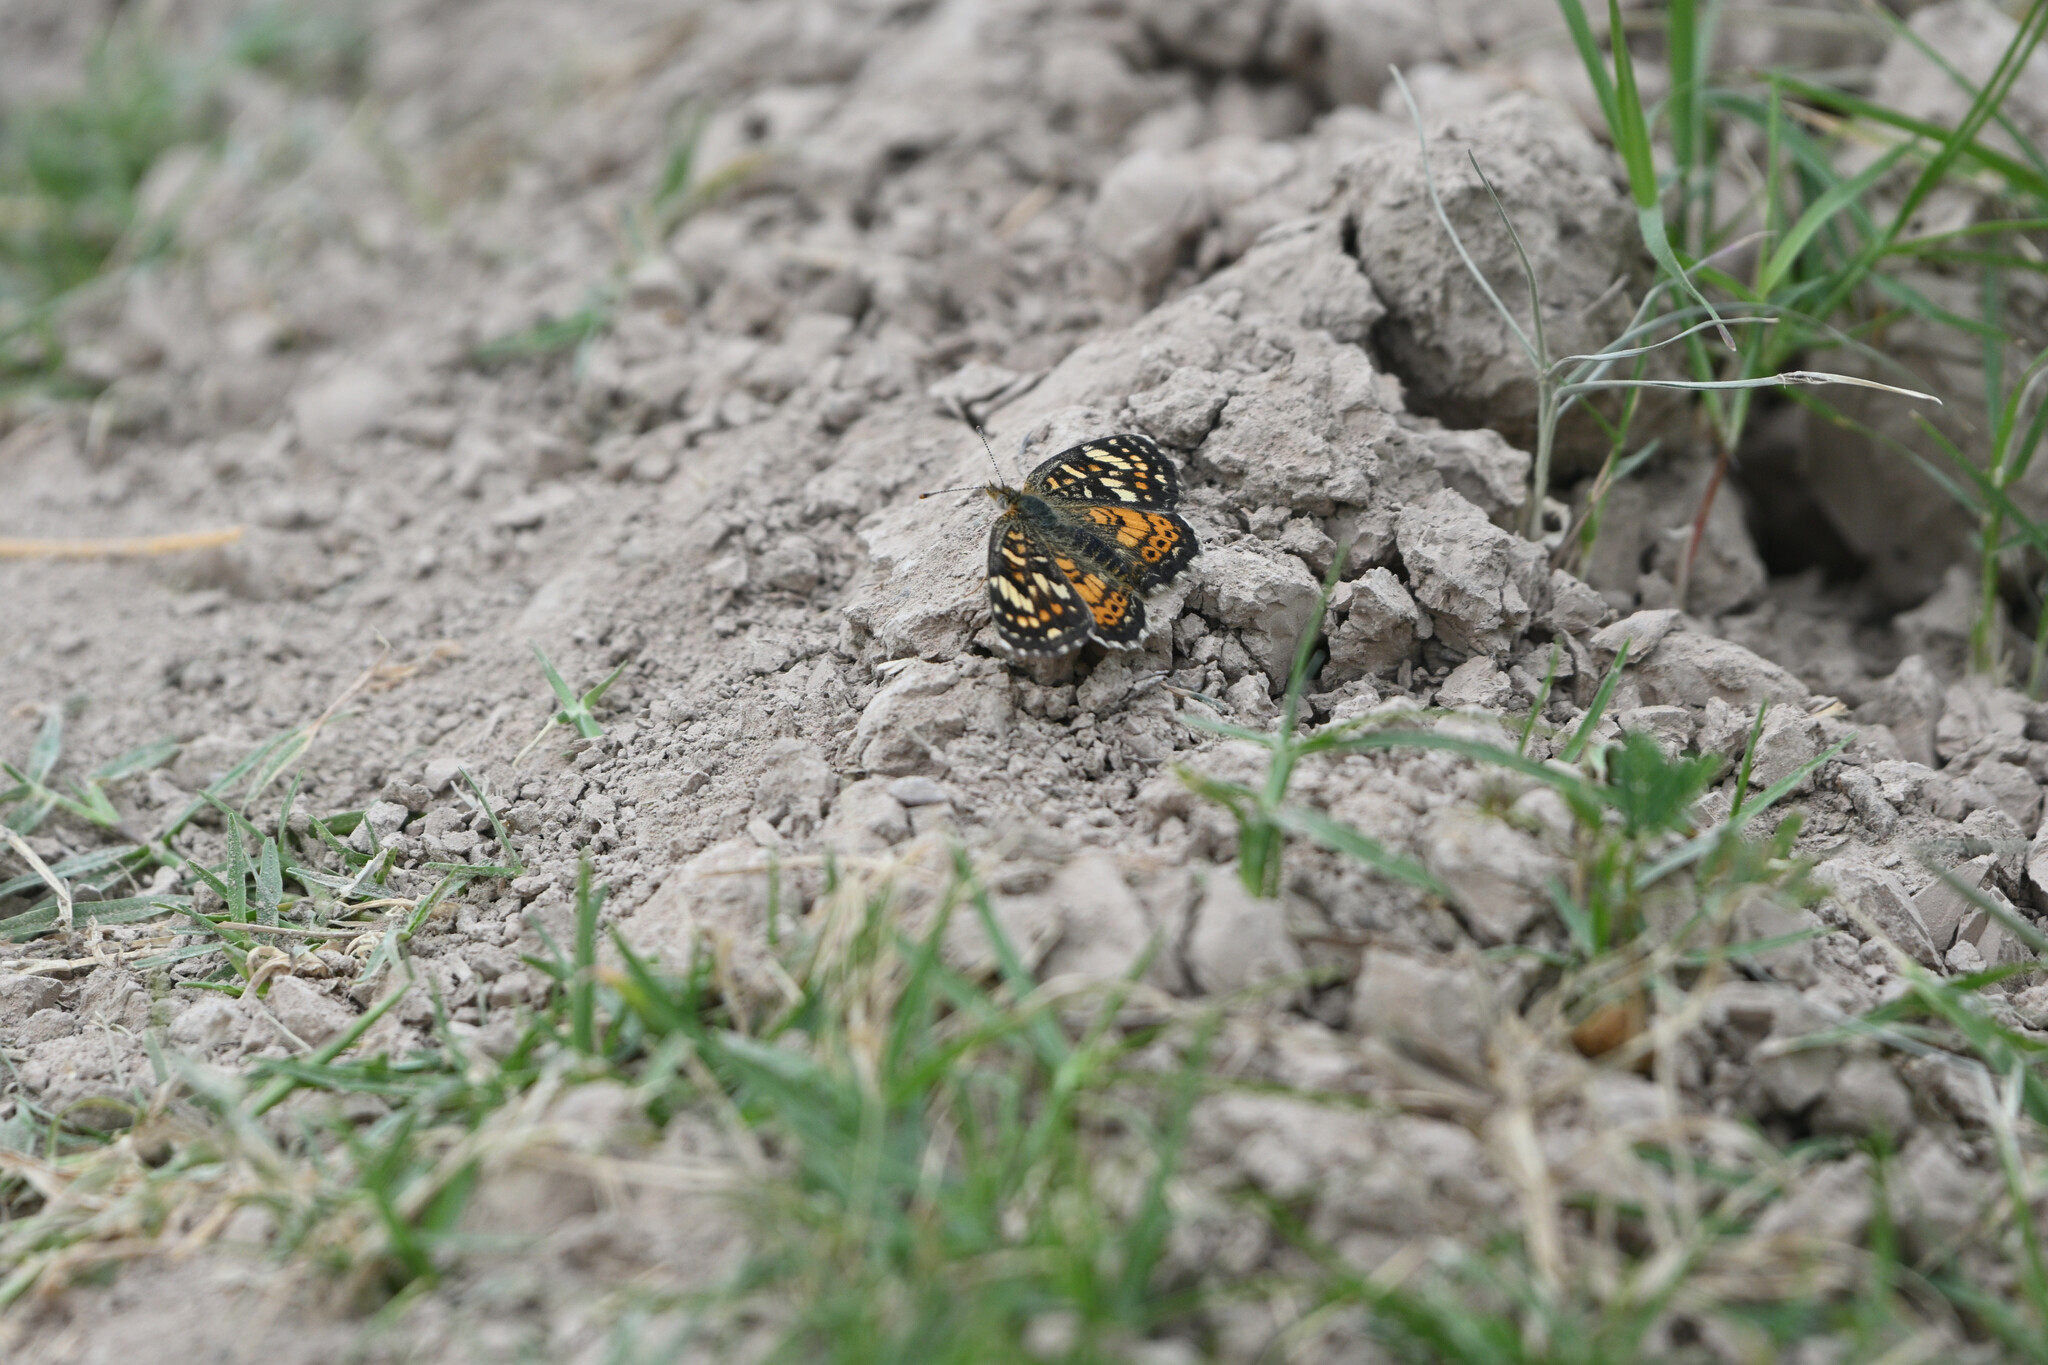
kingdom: Animalia
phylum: Arthropoda
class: Insecta
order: Lepidoptera
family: Nymphalidae
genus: Phyciodes
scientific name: Phyciodes picta
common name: Painted crescent
